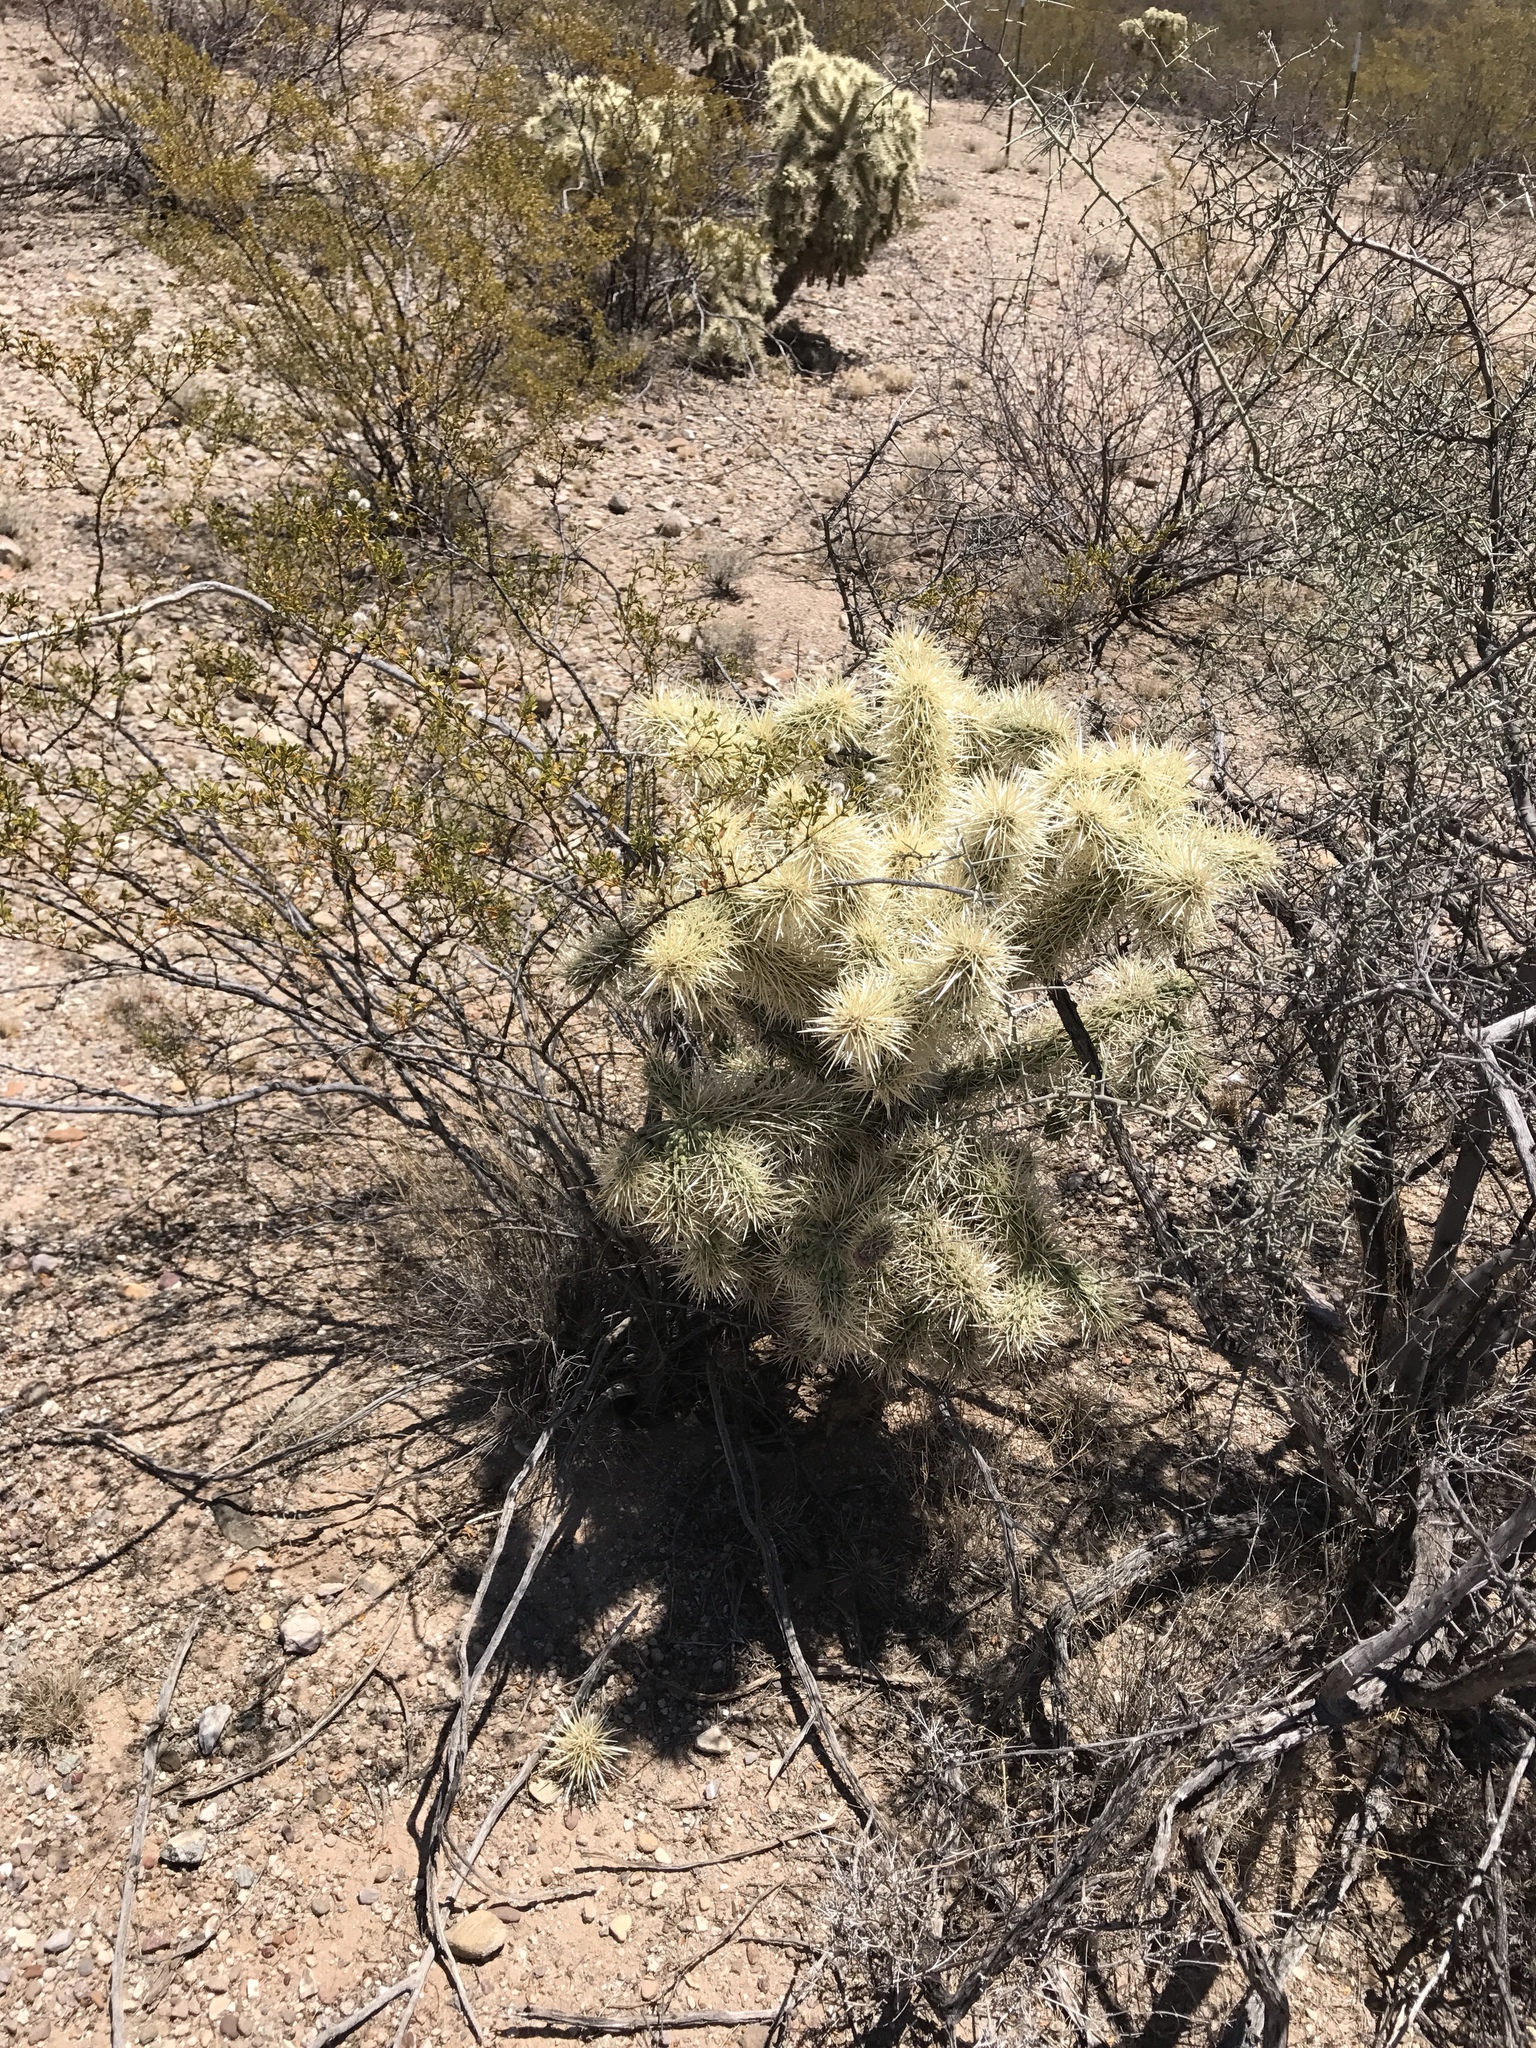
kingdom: Plantae
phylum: Tracheophyta
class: Magnoliopsida
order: Caryophyllales
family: Cactaceae
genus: Cylindropuntia
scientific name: Cylindropuntia fulgida
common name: Jumping cholla
